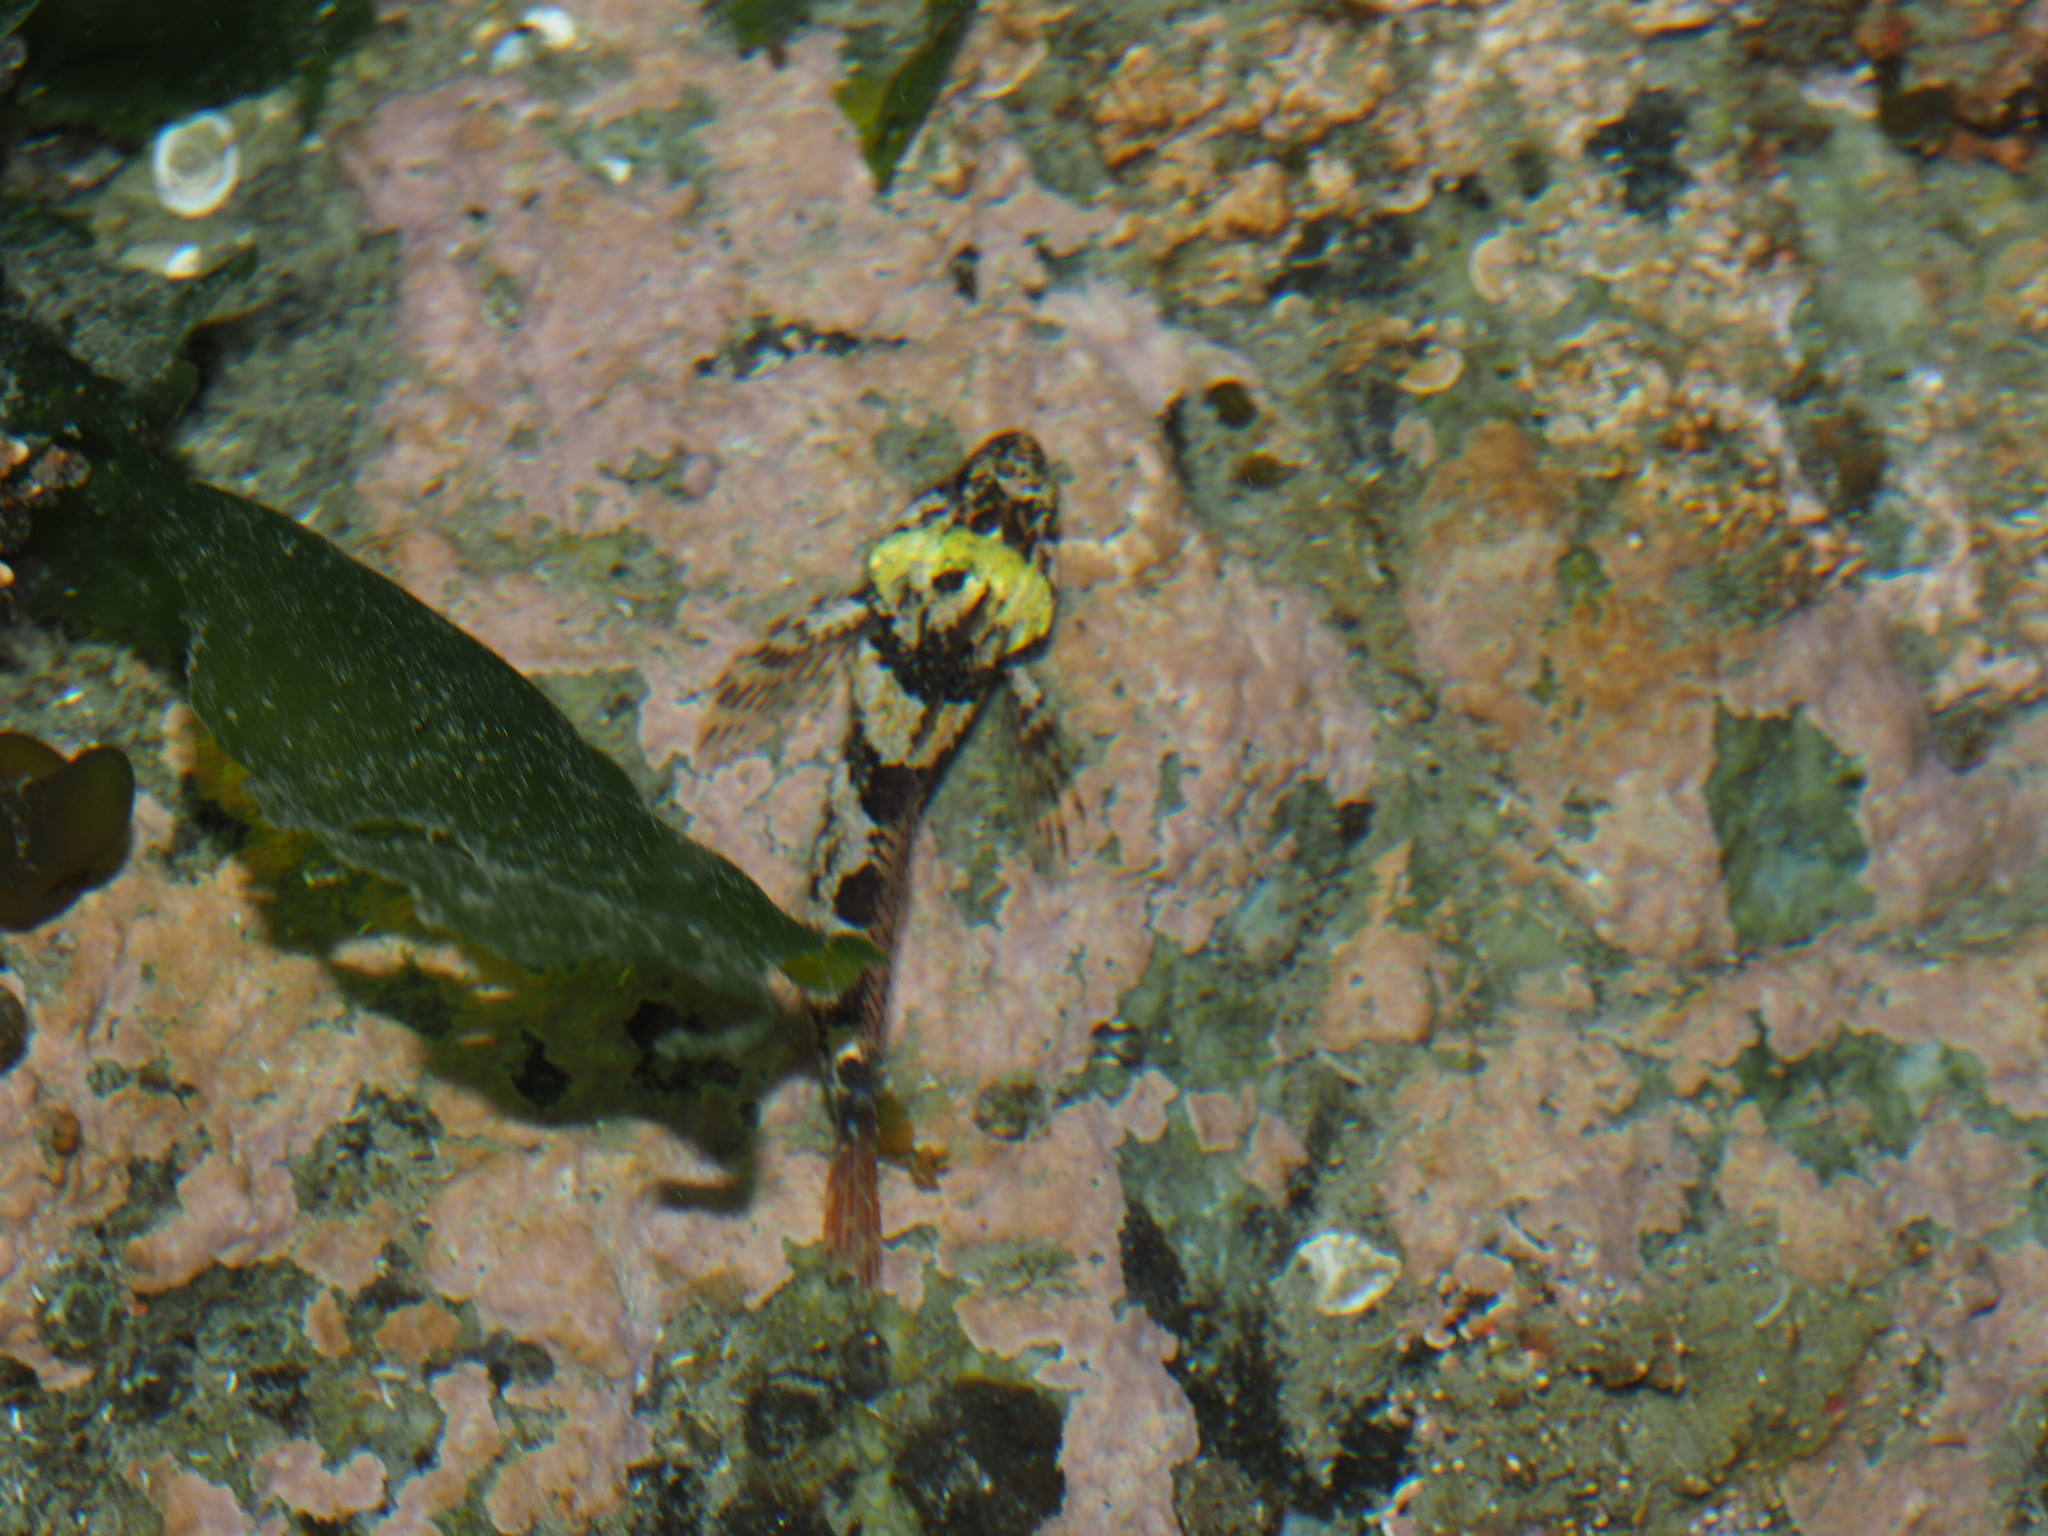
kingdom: Animalia
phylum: Chordata
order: Scorpaeniformes
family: Cottidae
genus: Oligocottus
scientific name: Oligocottus maculosus
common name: Tidepool sculpin
